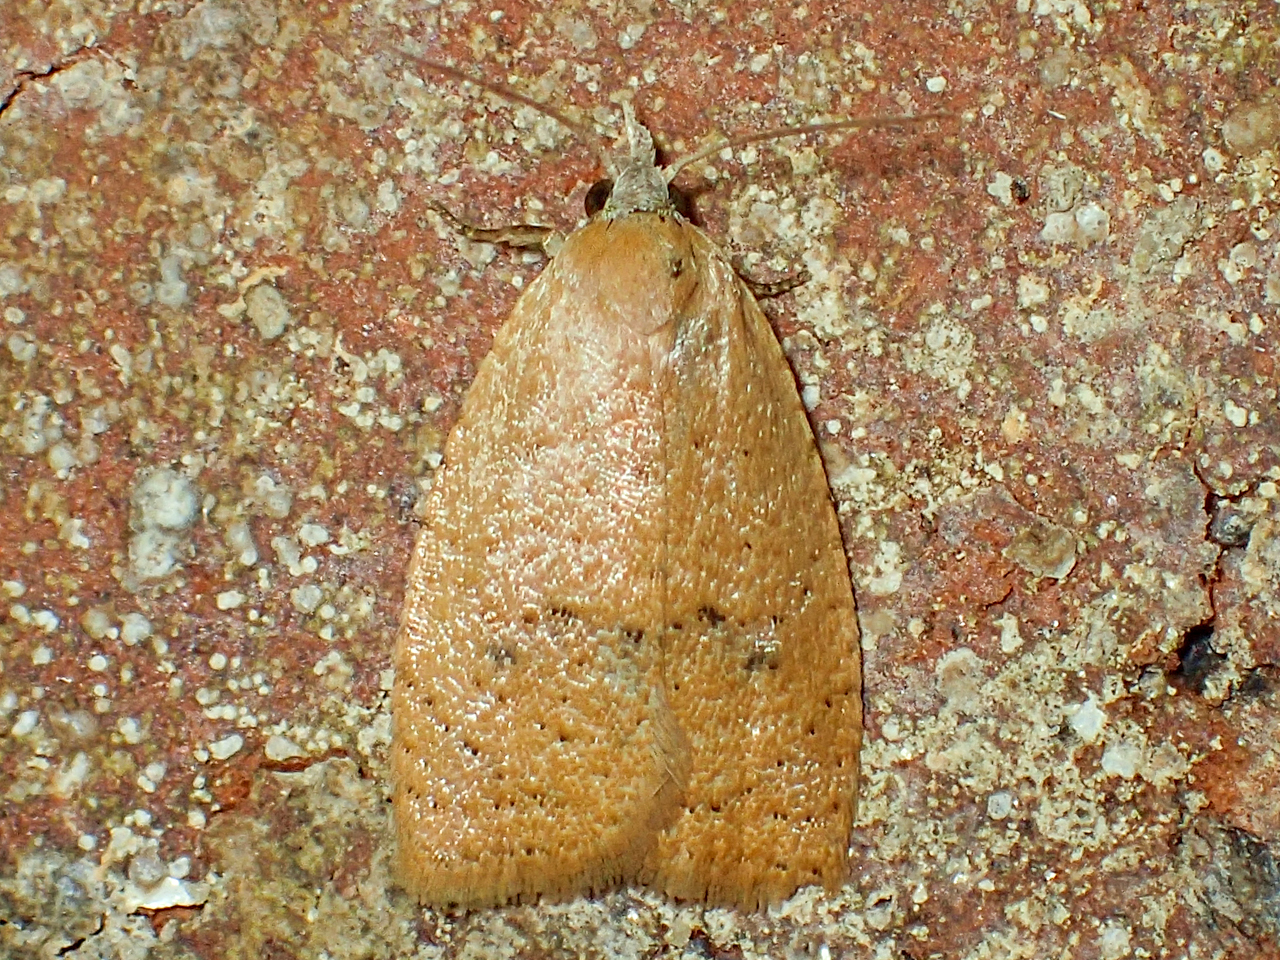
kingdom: Animalia
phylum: Arthropoda
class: Insecta
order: Lepidoptera
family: Tortricidae
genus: Sparganothoides
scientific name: Sparganothoides lentiginosana
